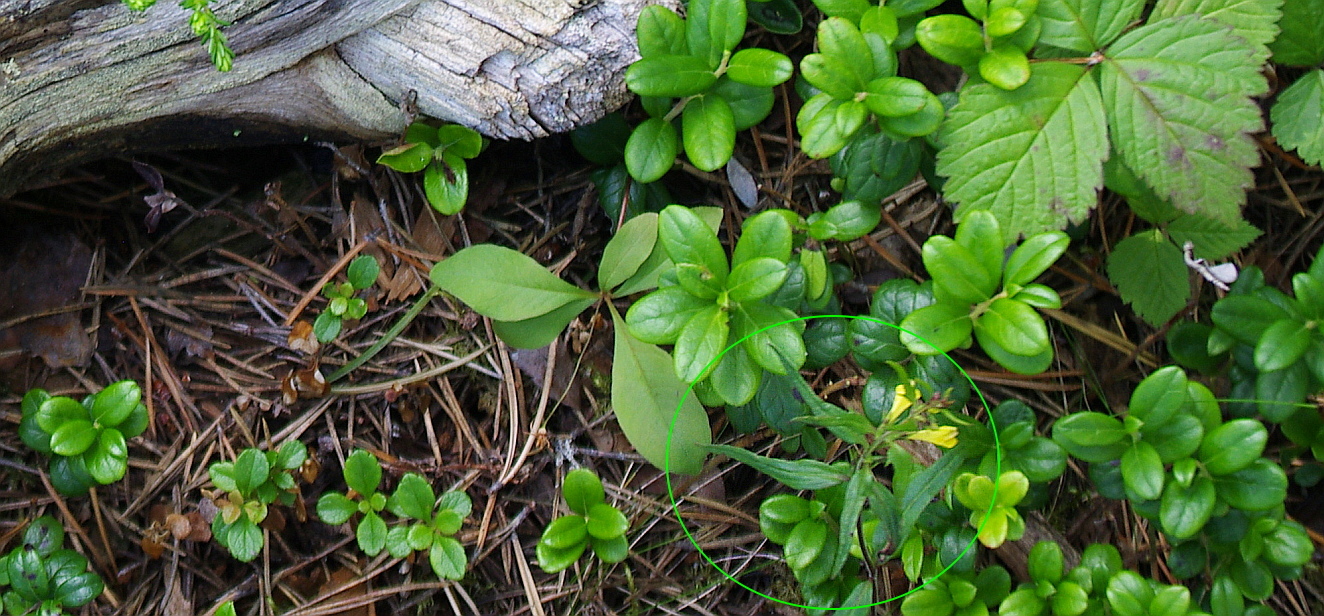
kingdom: Plantae
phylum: Tracheophyta
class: Magnoliopsida
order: Lamiales
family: Orobanchaceae
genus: Melampyrum
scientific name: Melampyrum pratense
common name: Common cow-wheat
